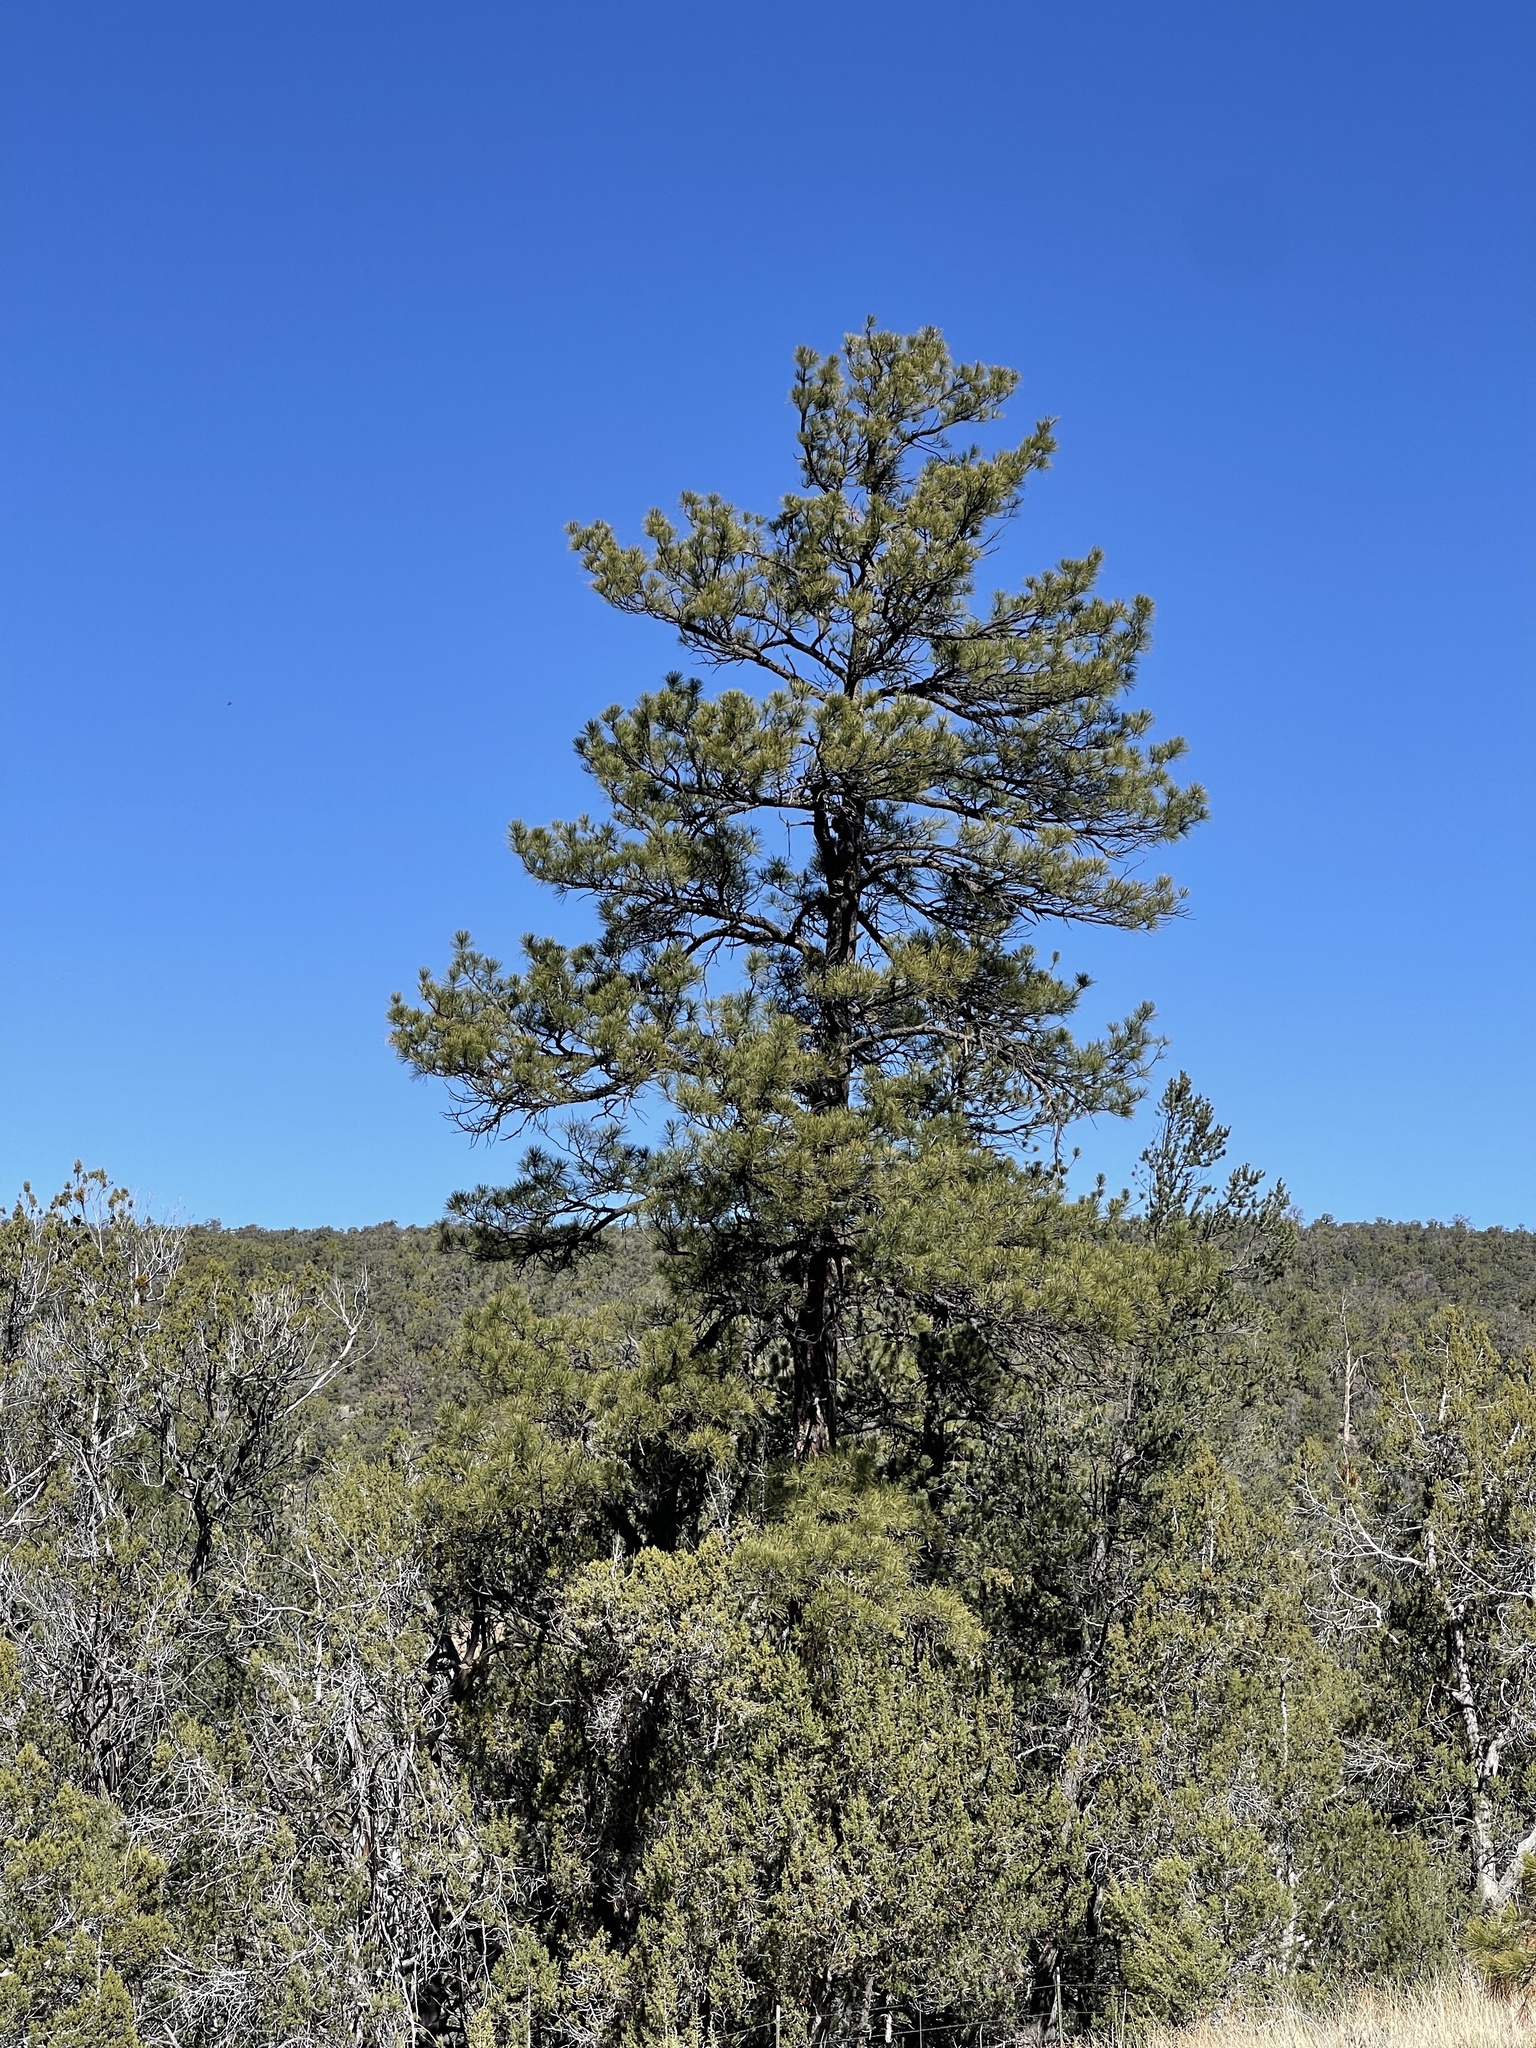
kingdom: Plantae
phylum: Tracheophyta
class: Pinopsida
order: Pinales
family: Pinaceae
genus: Pinus
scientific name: Pinus ponderosa
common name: Western yellow-pine
